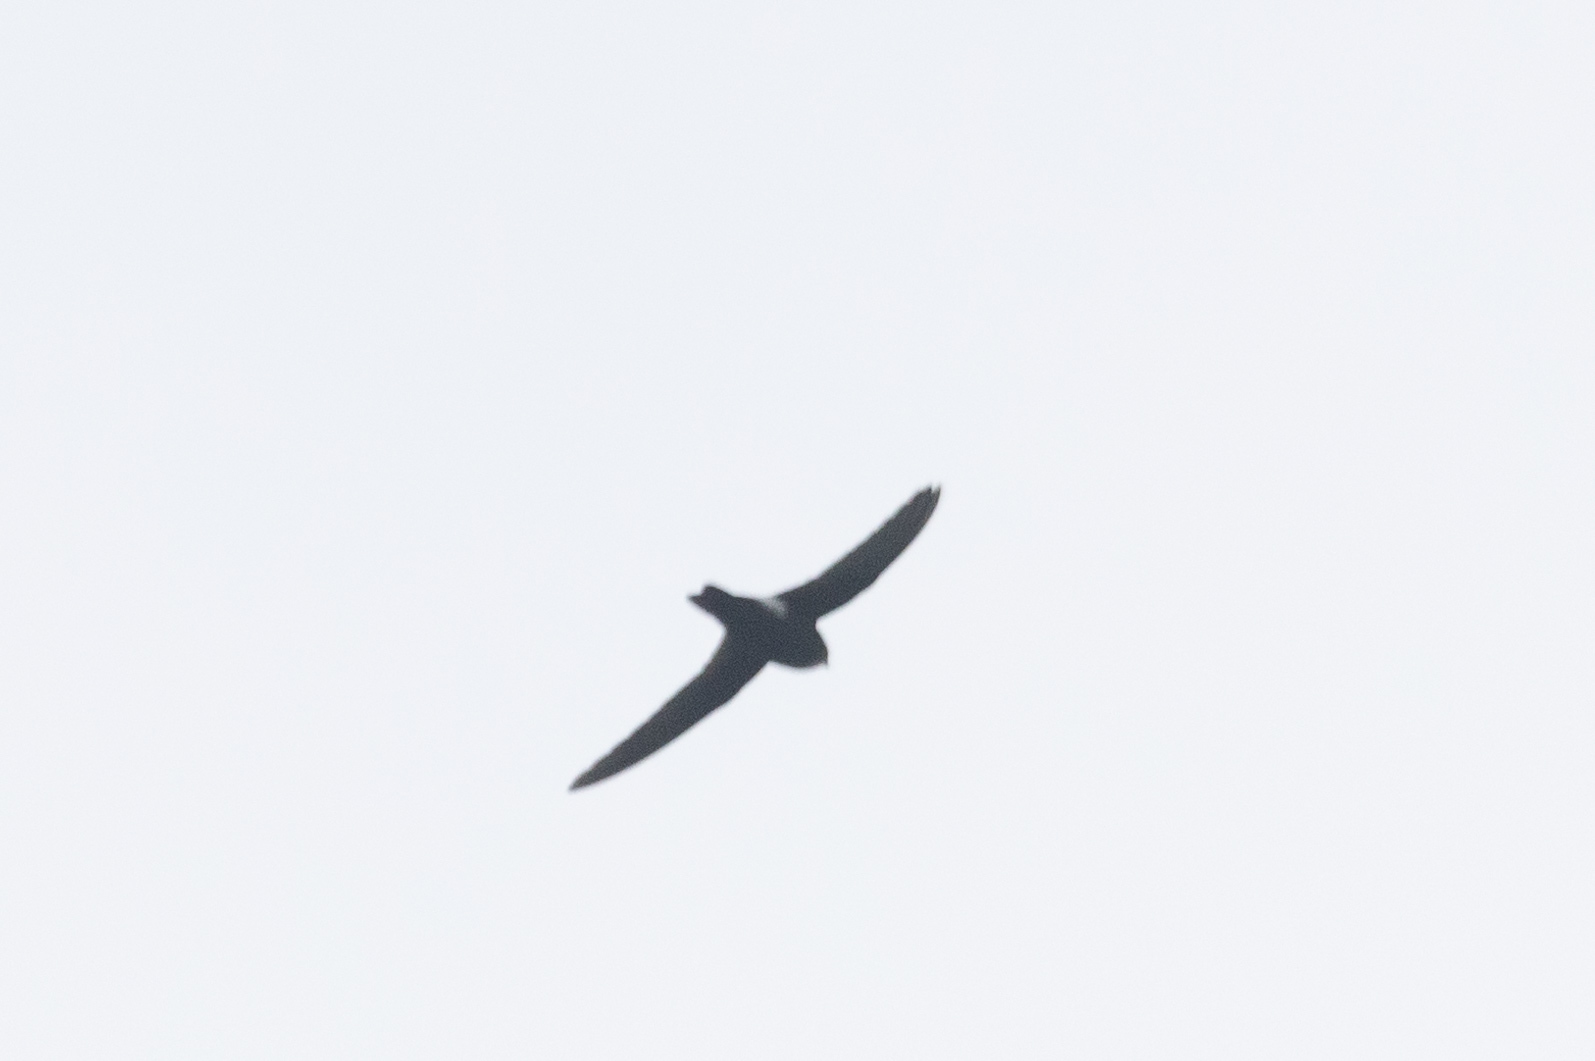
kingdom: Animalia
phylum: Chordata
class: Aves
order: Apodiformes
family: Apodidae
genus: Apus
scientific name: Apus nipalensis
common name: House swift
